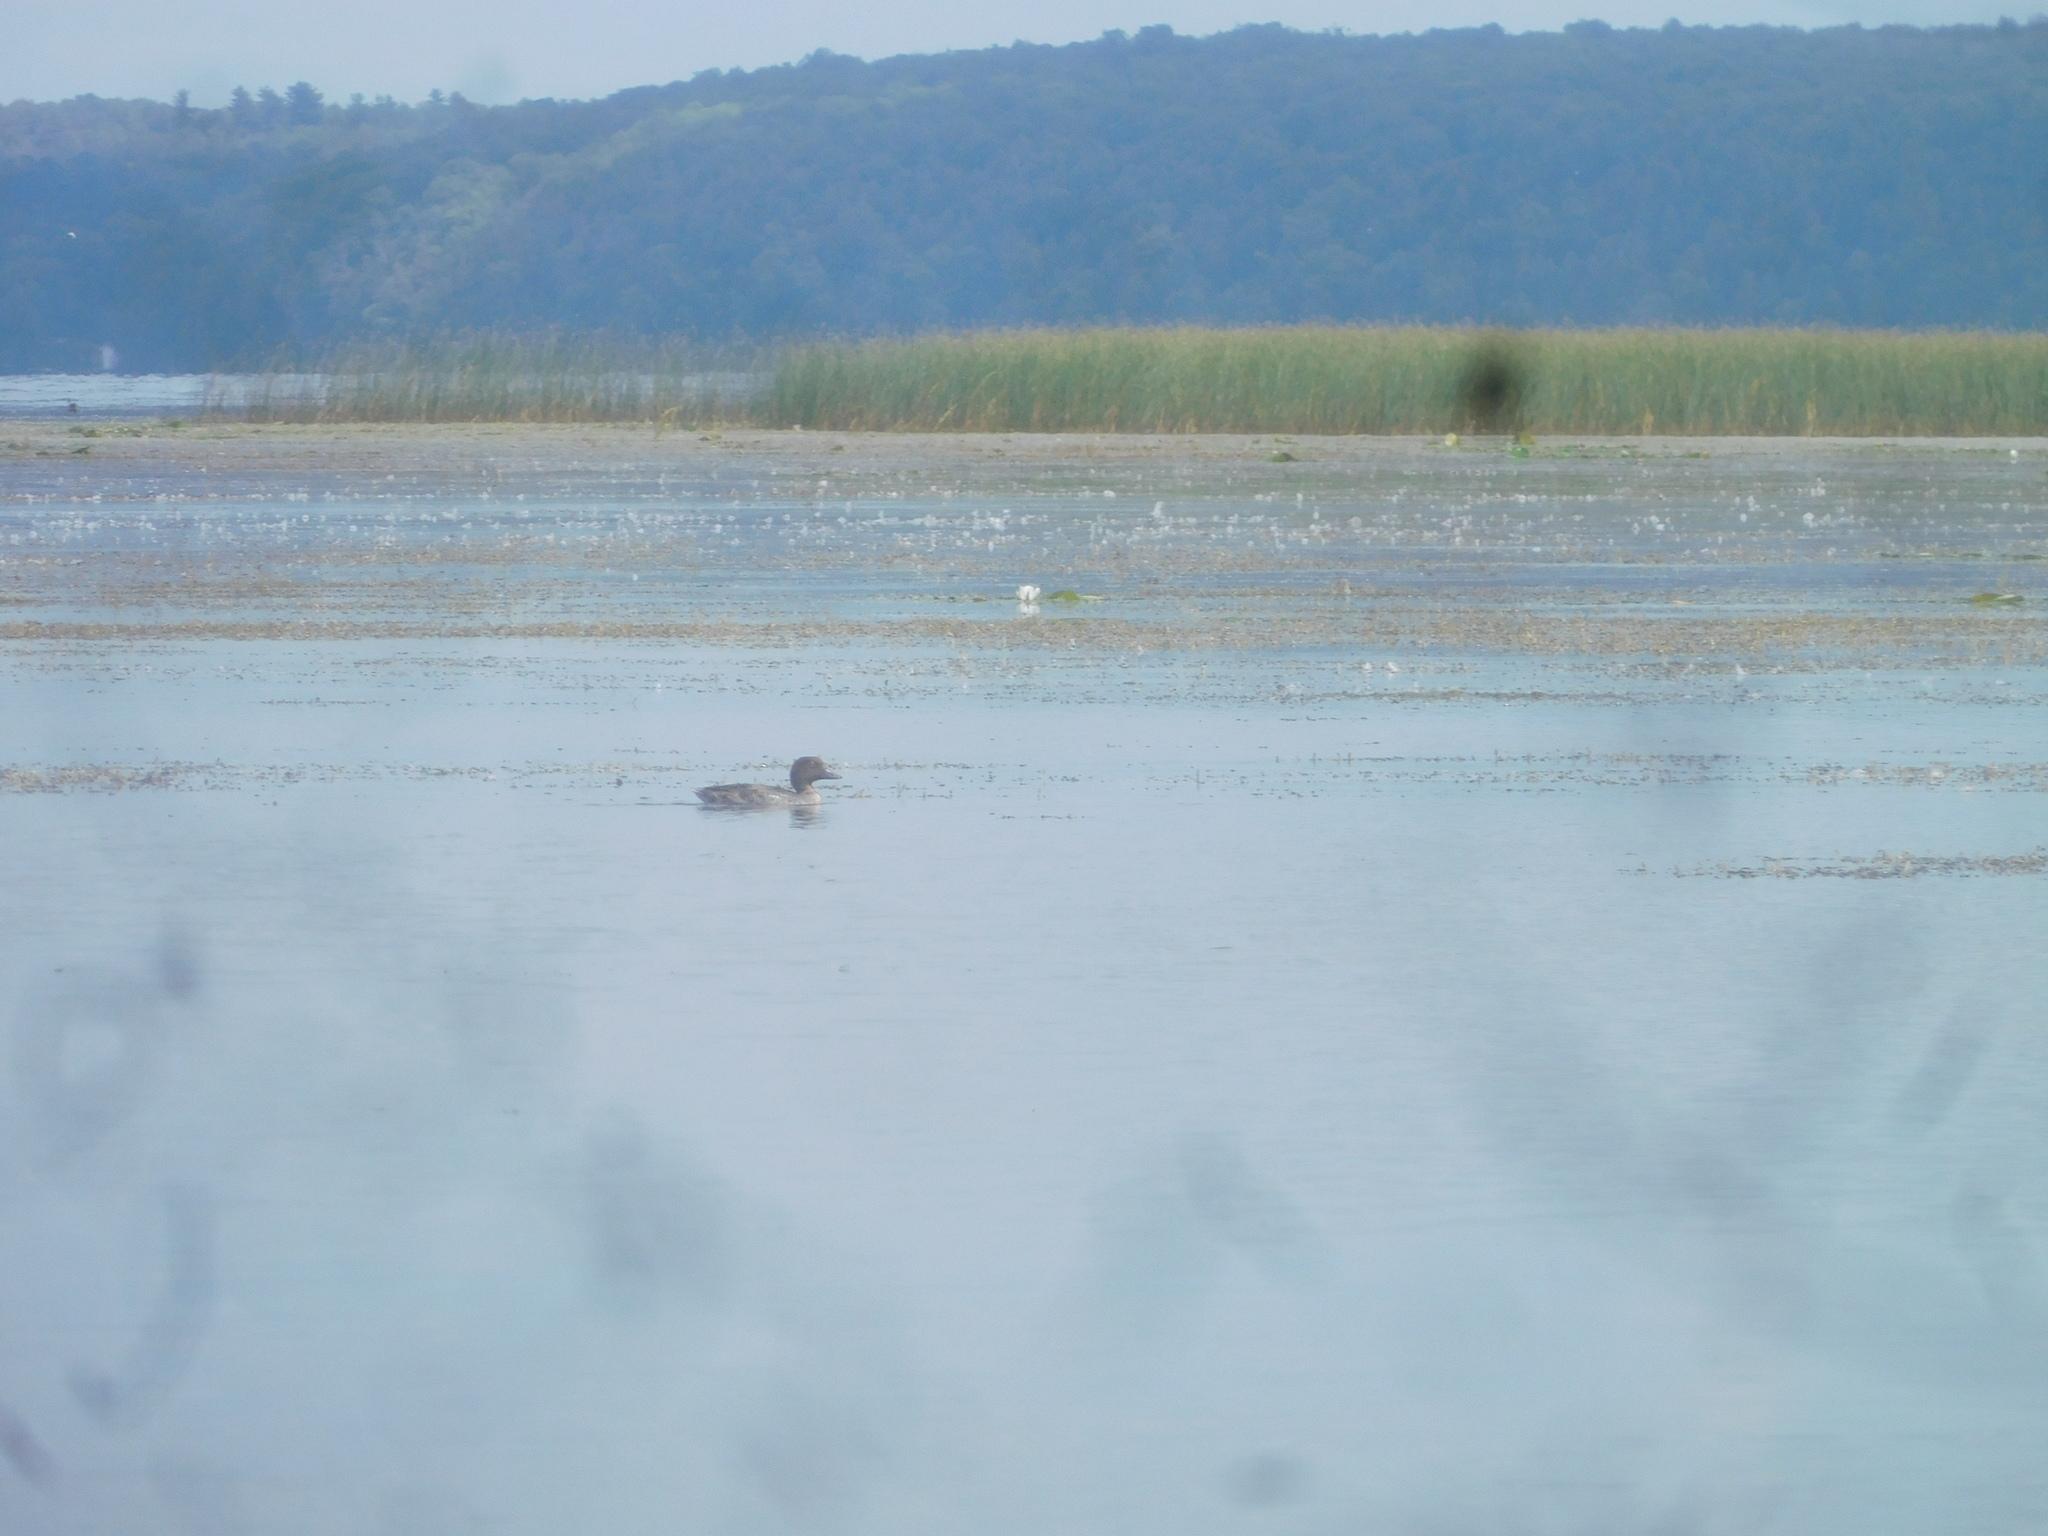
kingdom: Animalia
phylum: Chordata
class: Aves
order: Anseriformes
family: Anatidae
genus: Bucephala
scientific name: Bucephala clangula
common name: Common goldeneye
